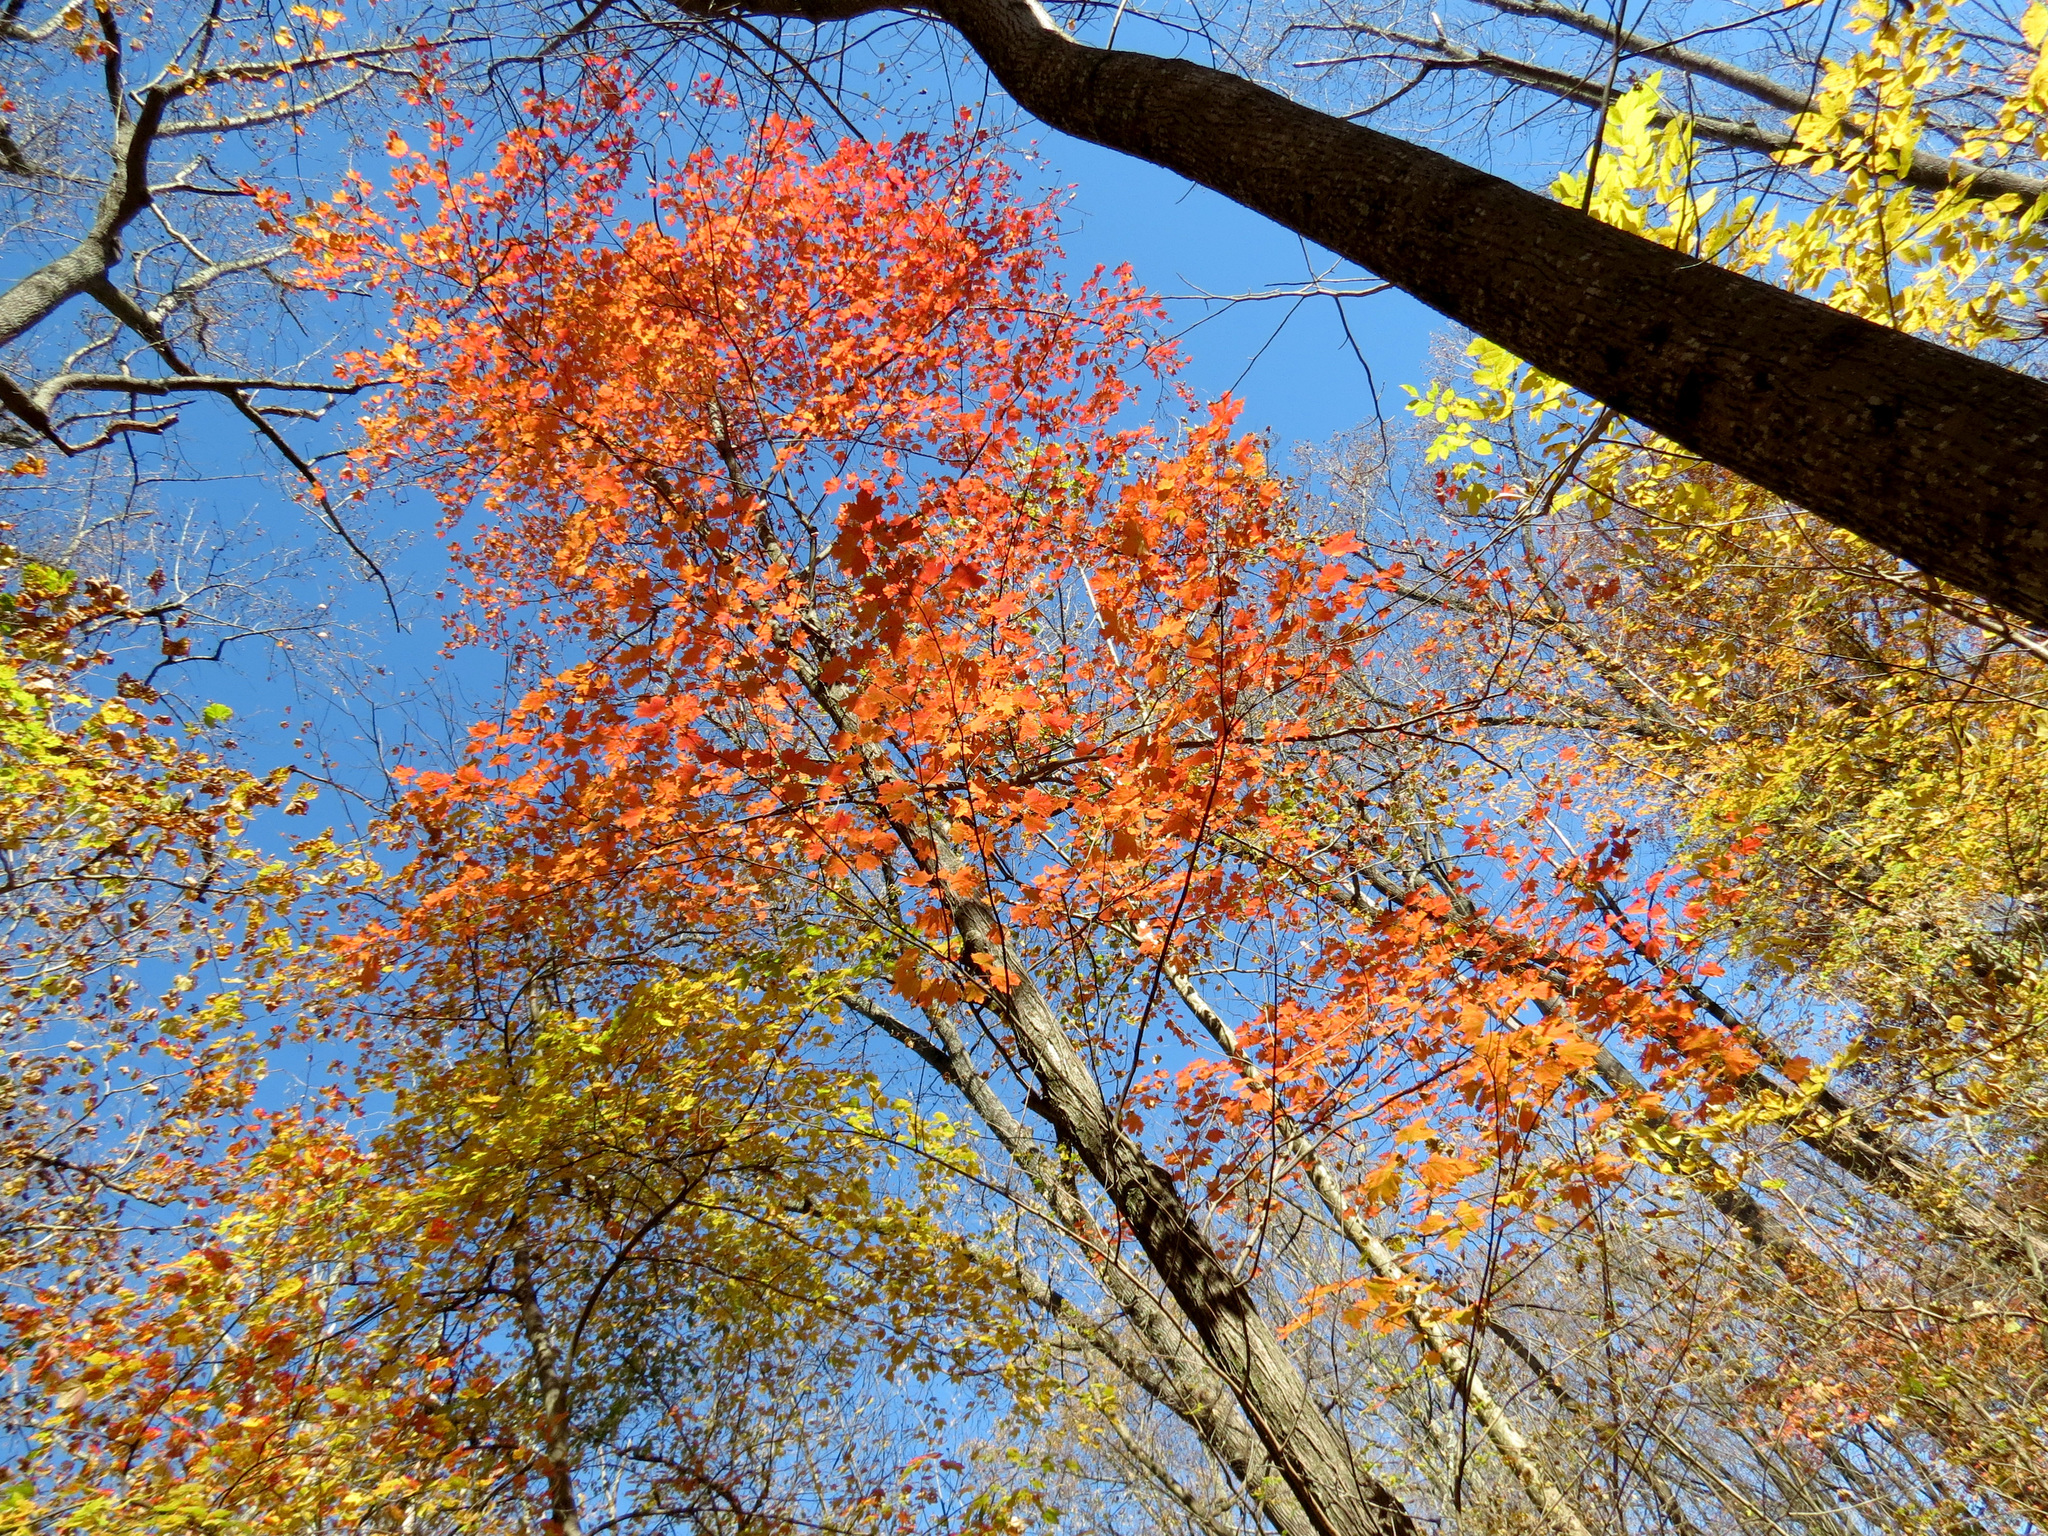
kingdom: Plantae
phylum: Tracheophyta
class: Magnoliopsida
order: Sapindales
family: Sapindaceae
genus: Acer
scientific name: Acer saccharum
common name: Sugar maple
